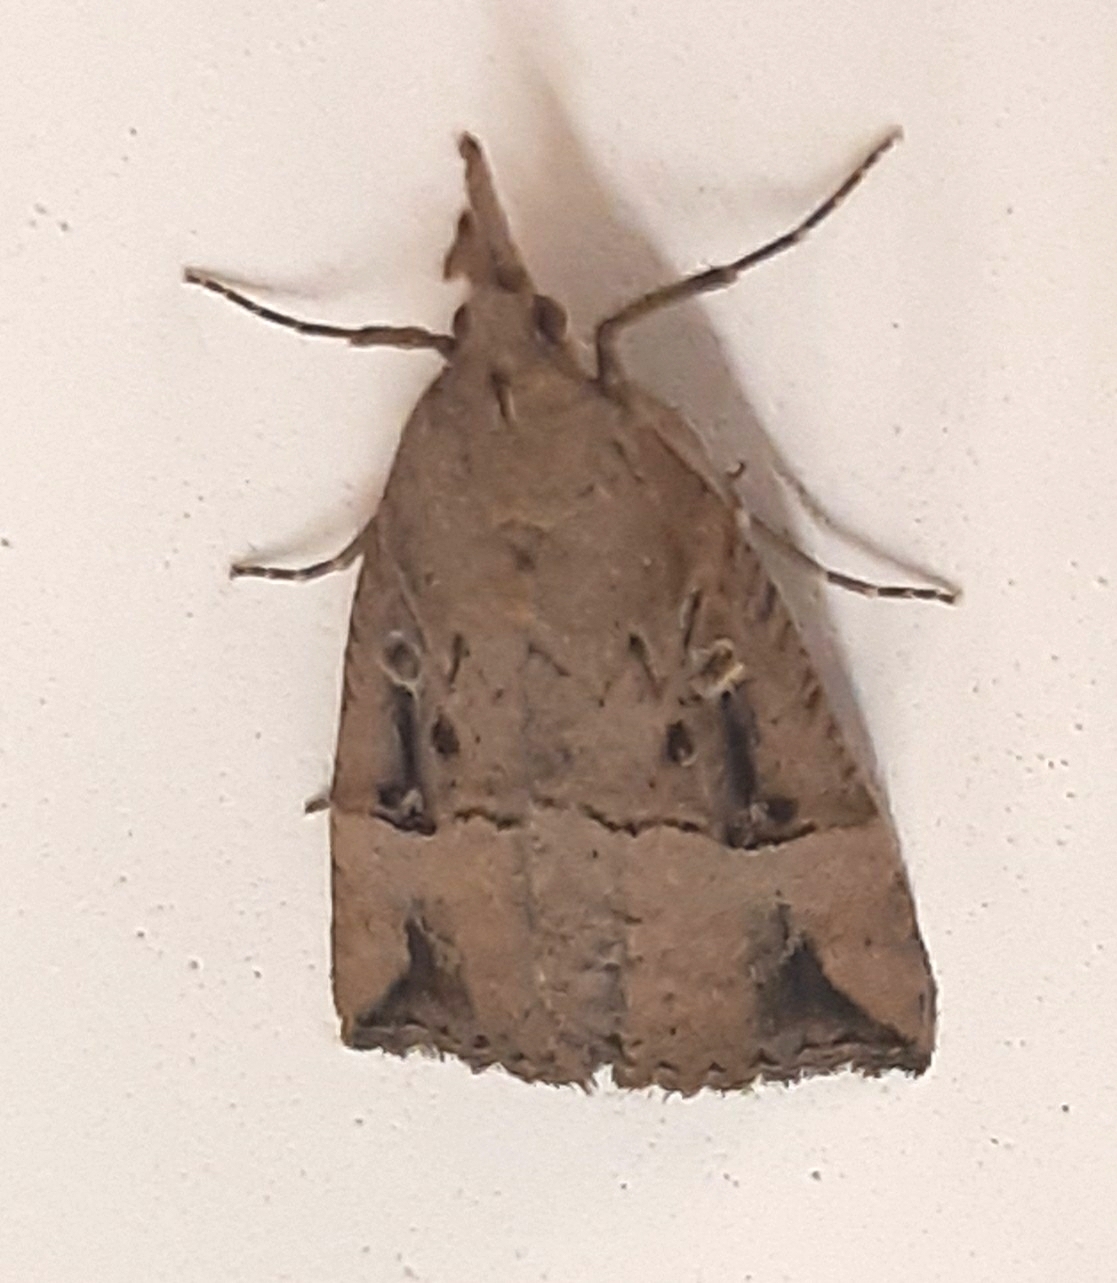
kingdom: Animalia
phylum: Arthropoda
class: Insecta
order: Lepidoptera
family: Erebidae
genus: Hypena
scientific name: Hypena rostralis
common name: Buttoned snout
